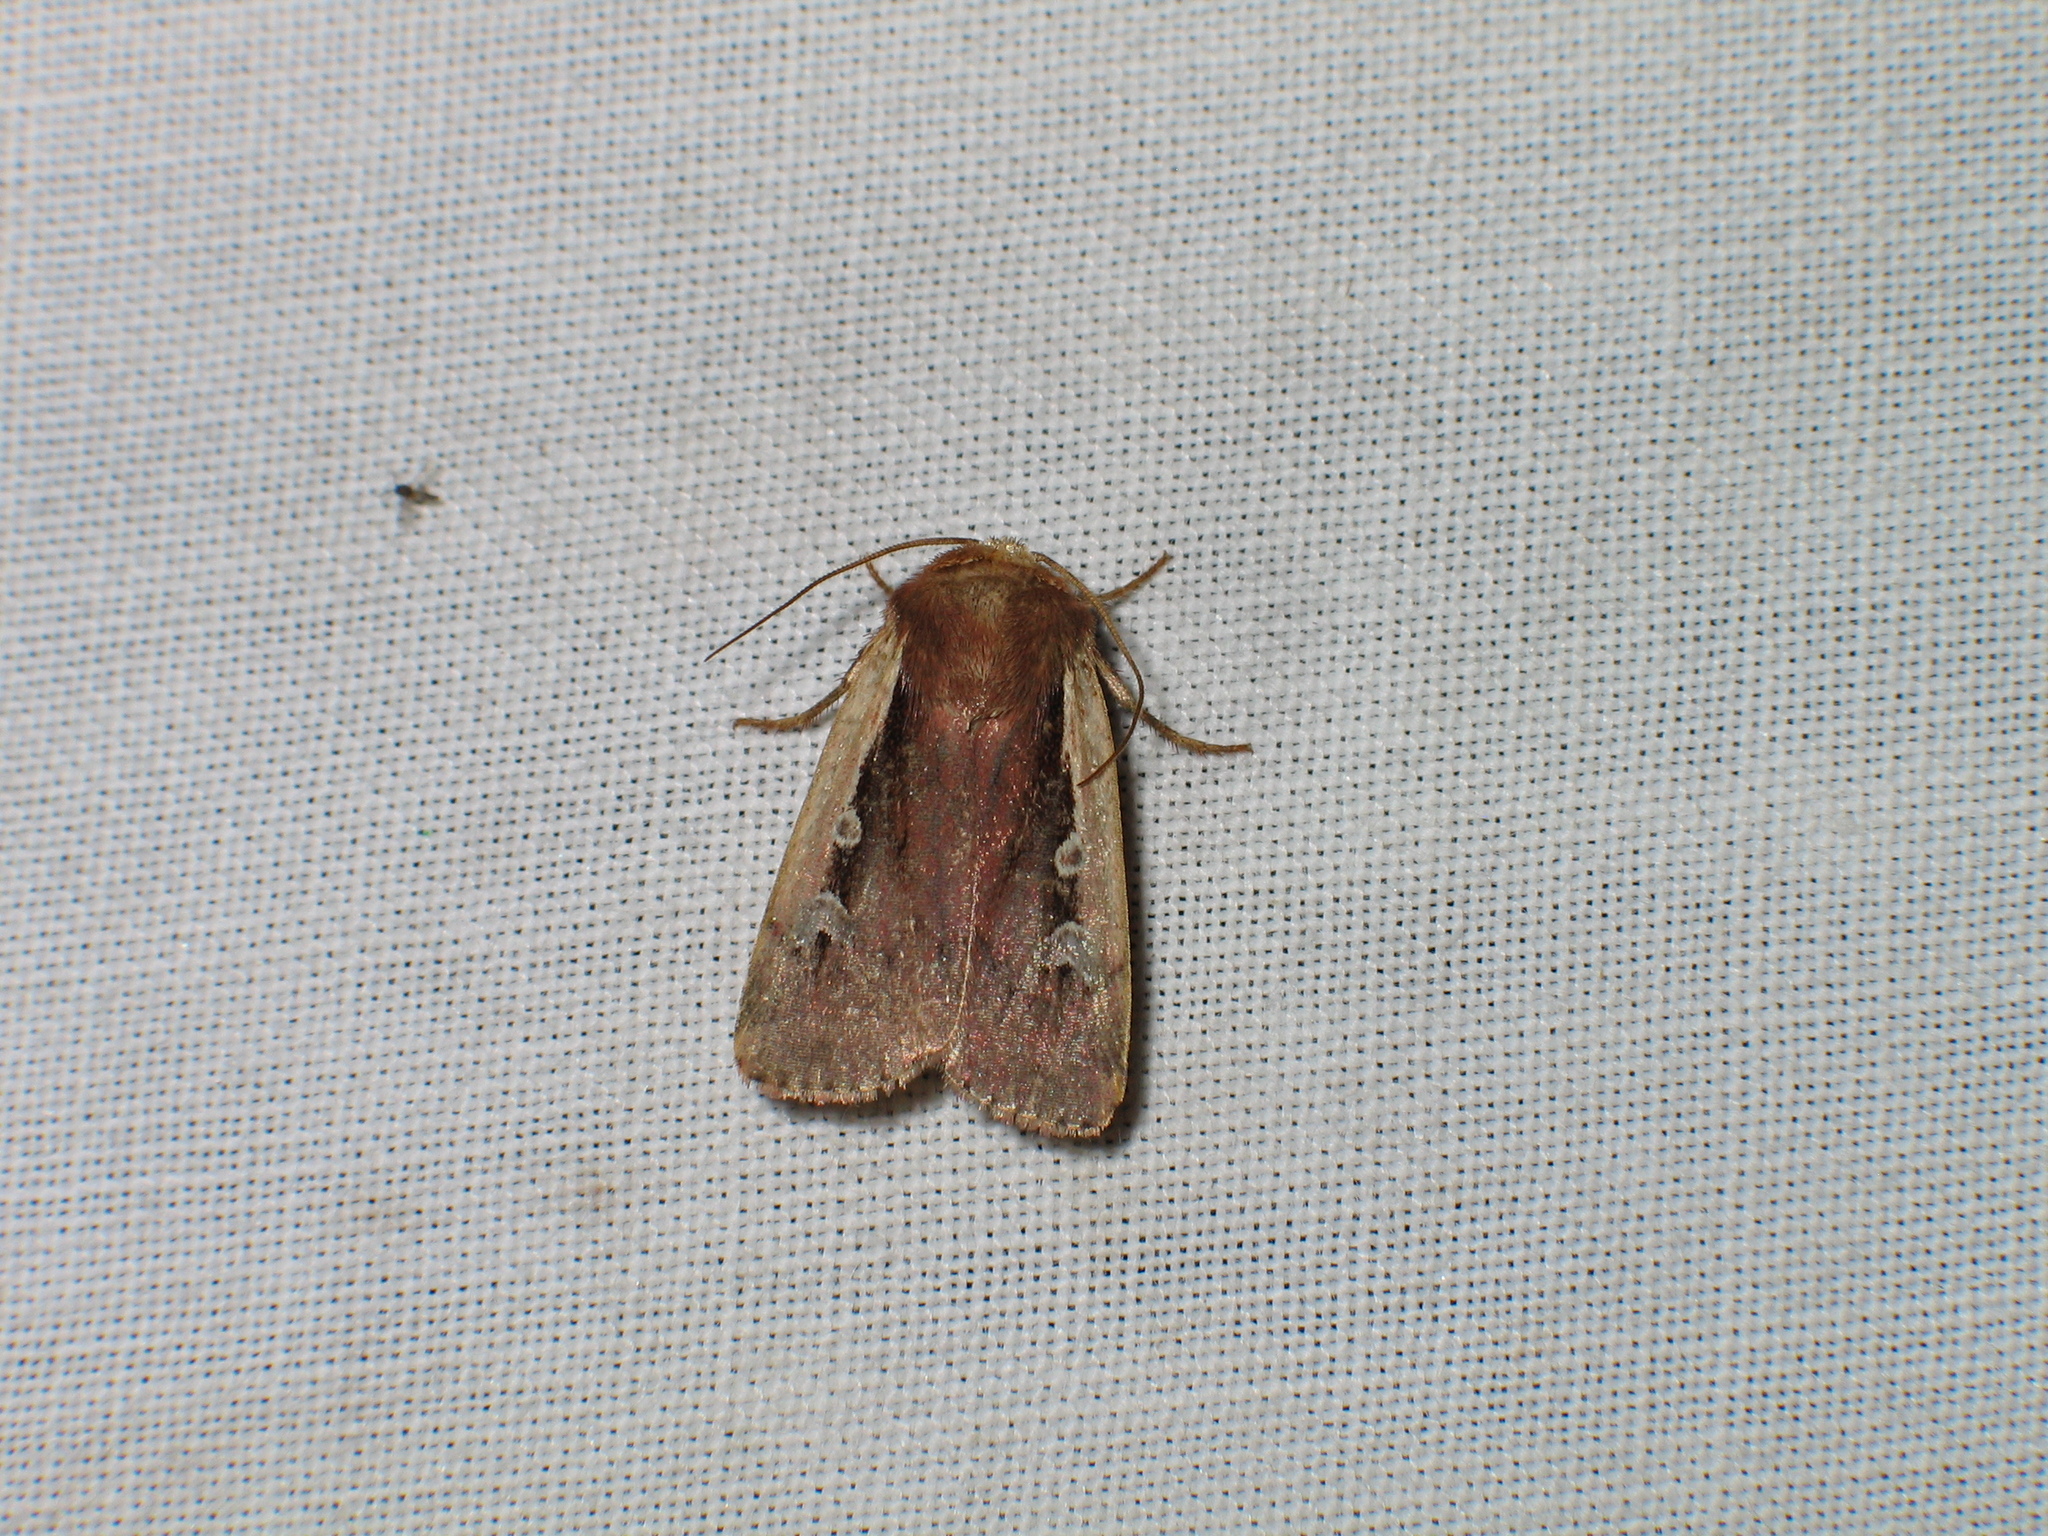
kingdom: Animalia
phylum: Arthropoda
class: Insecta
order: Lepidoptera
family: Noctuidae
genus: Ochropleura
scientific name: Ochropleura plecta
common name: Flame shoulder
